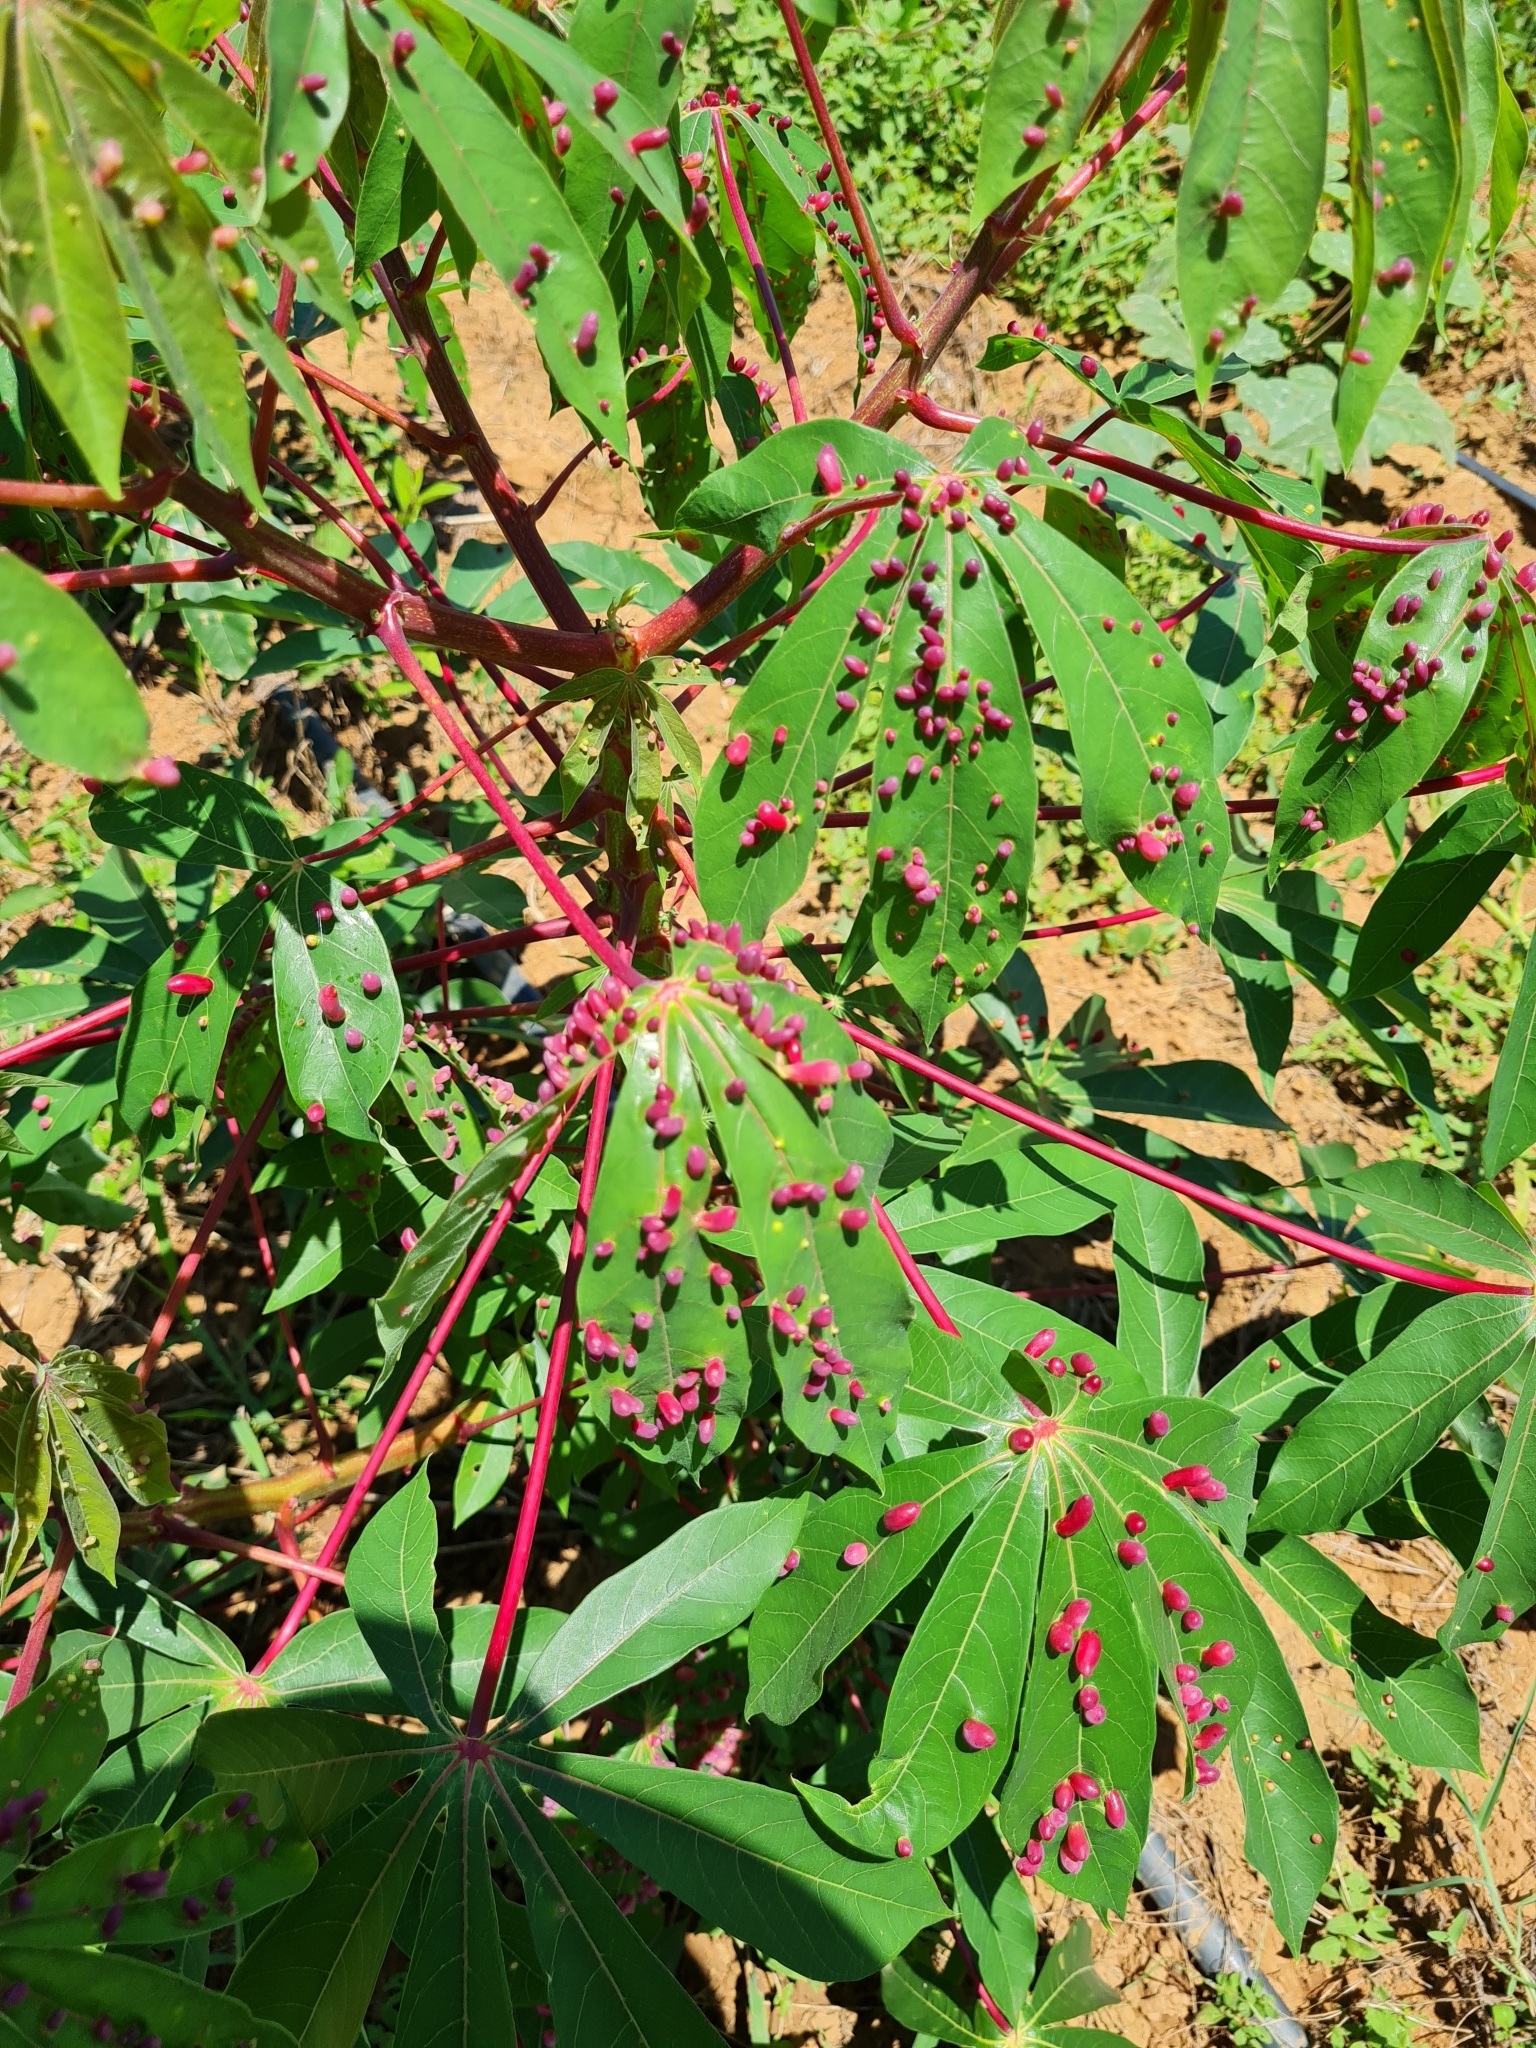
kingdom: Plantae
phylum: Tracheophyta
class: Magnoliopsida
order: Malpighiales
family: Euphorbiaceae
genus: Manihot
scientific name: Manihot esculenta
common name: Cassava
